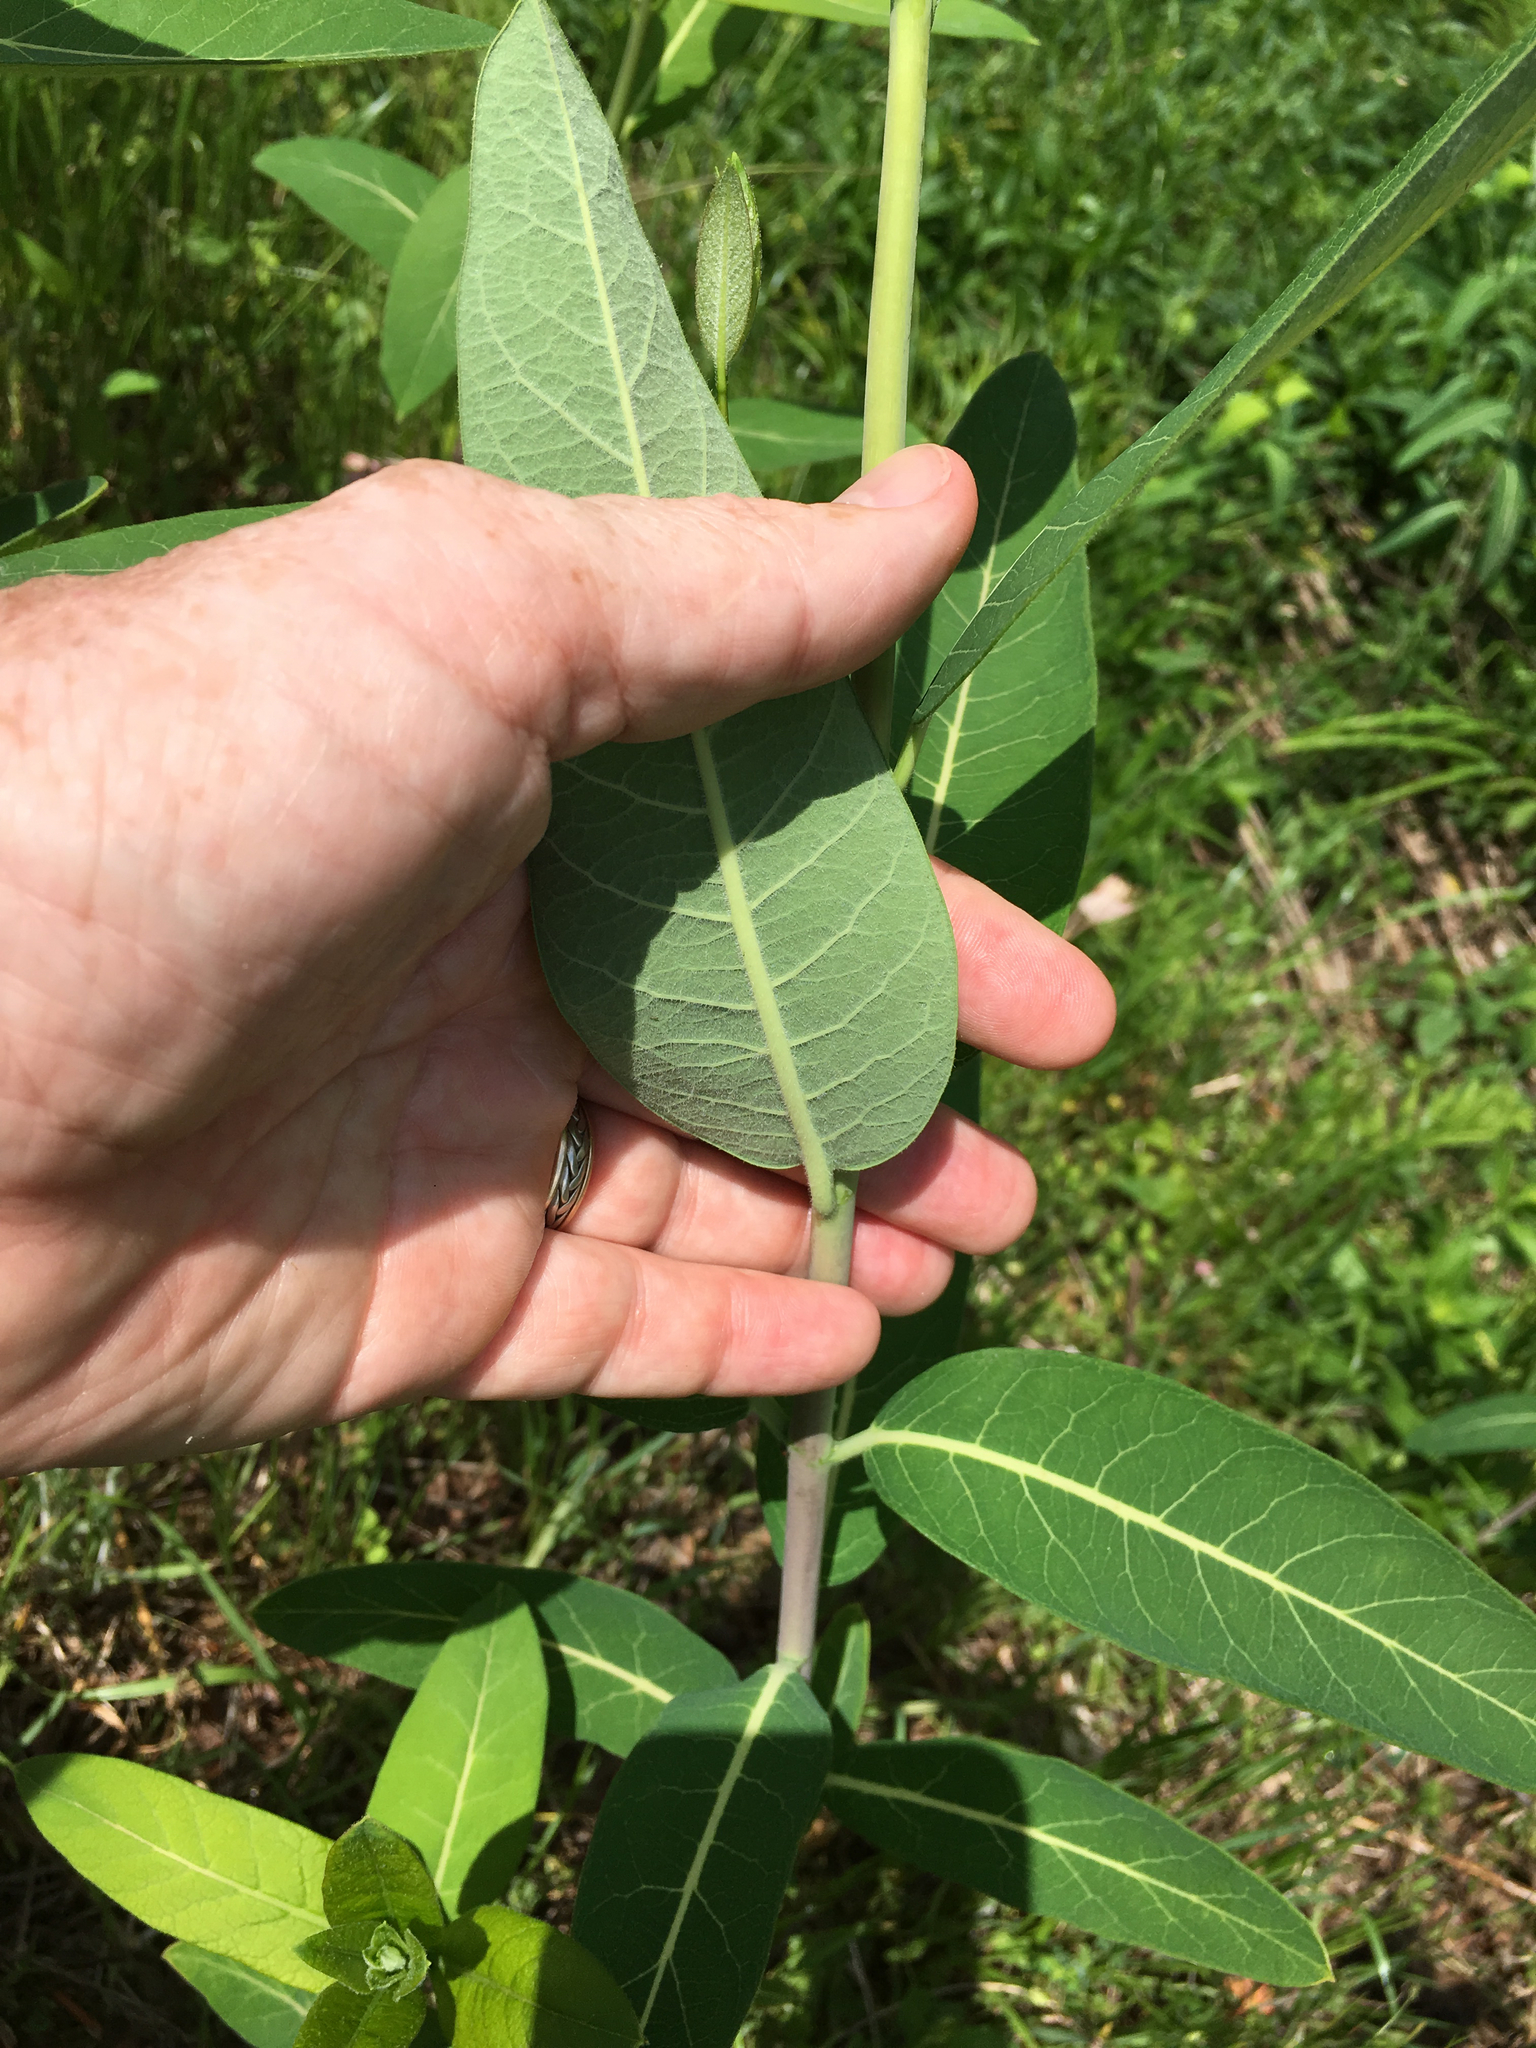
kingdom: Plantae
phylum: Tracheophyta
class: Magnoliopsida
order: Gentianales
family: Apocynaceae
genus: Apocynum
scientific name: Apocynum cannabinum
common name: Hemp dogbane
